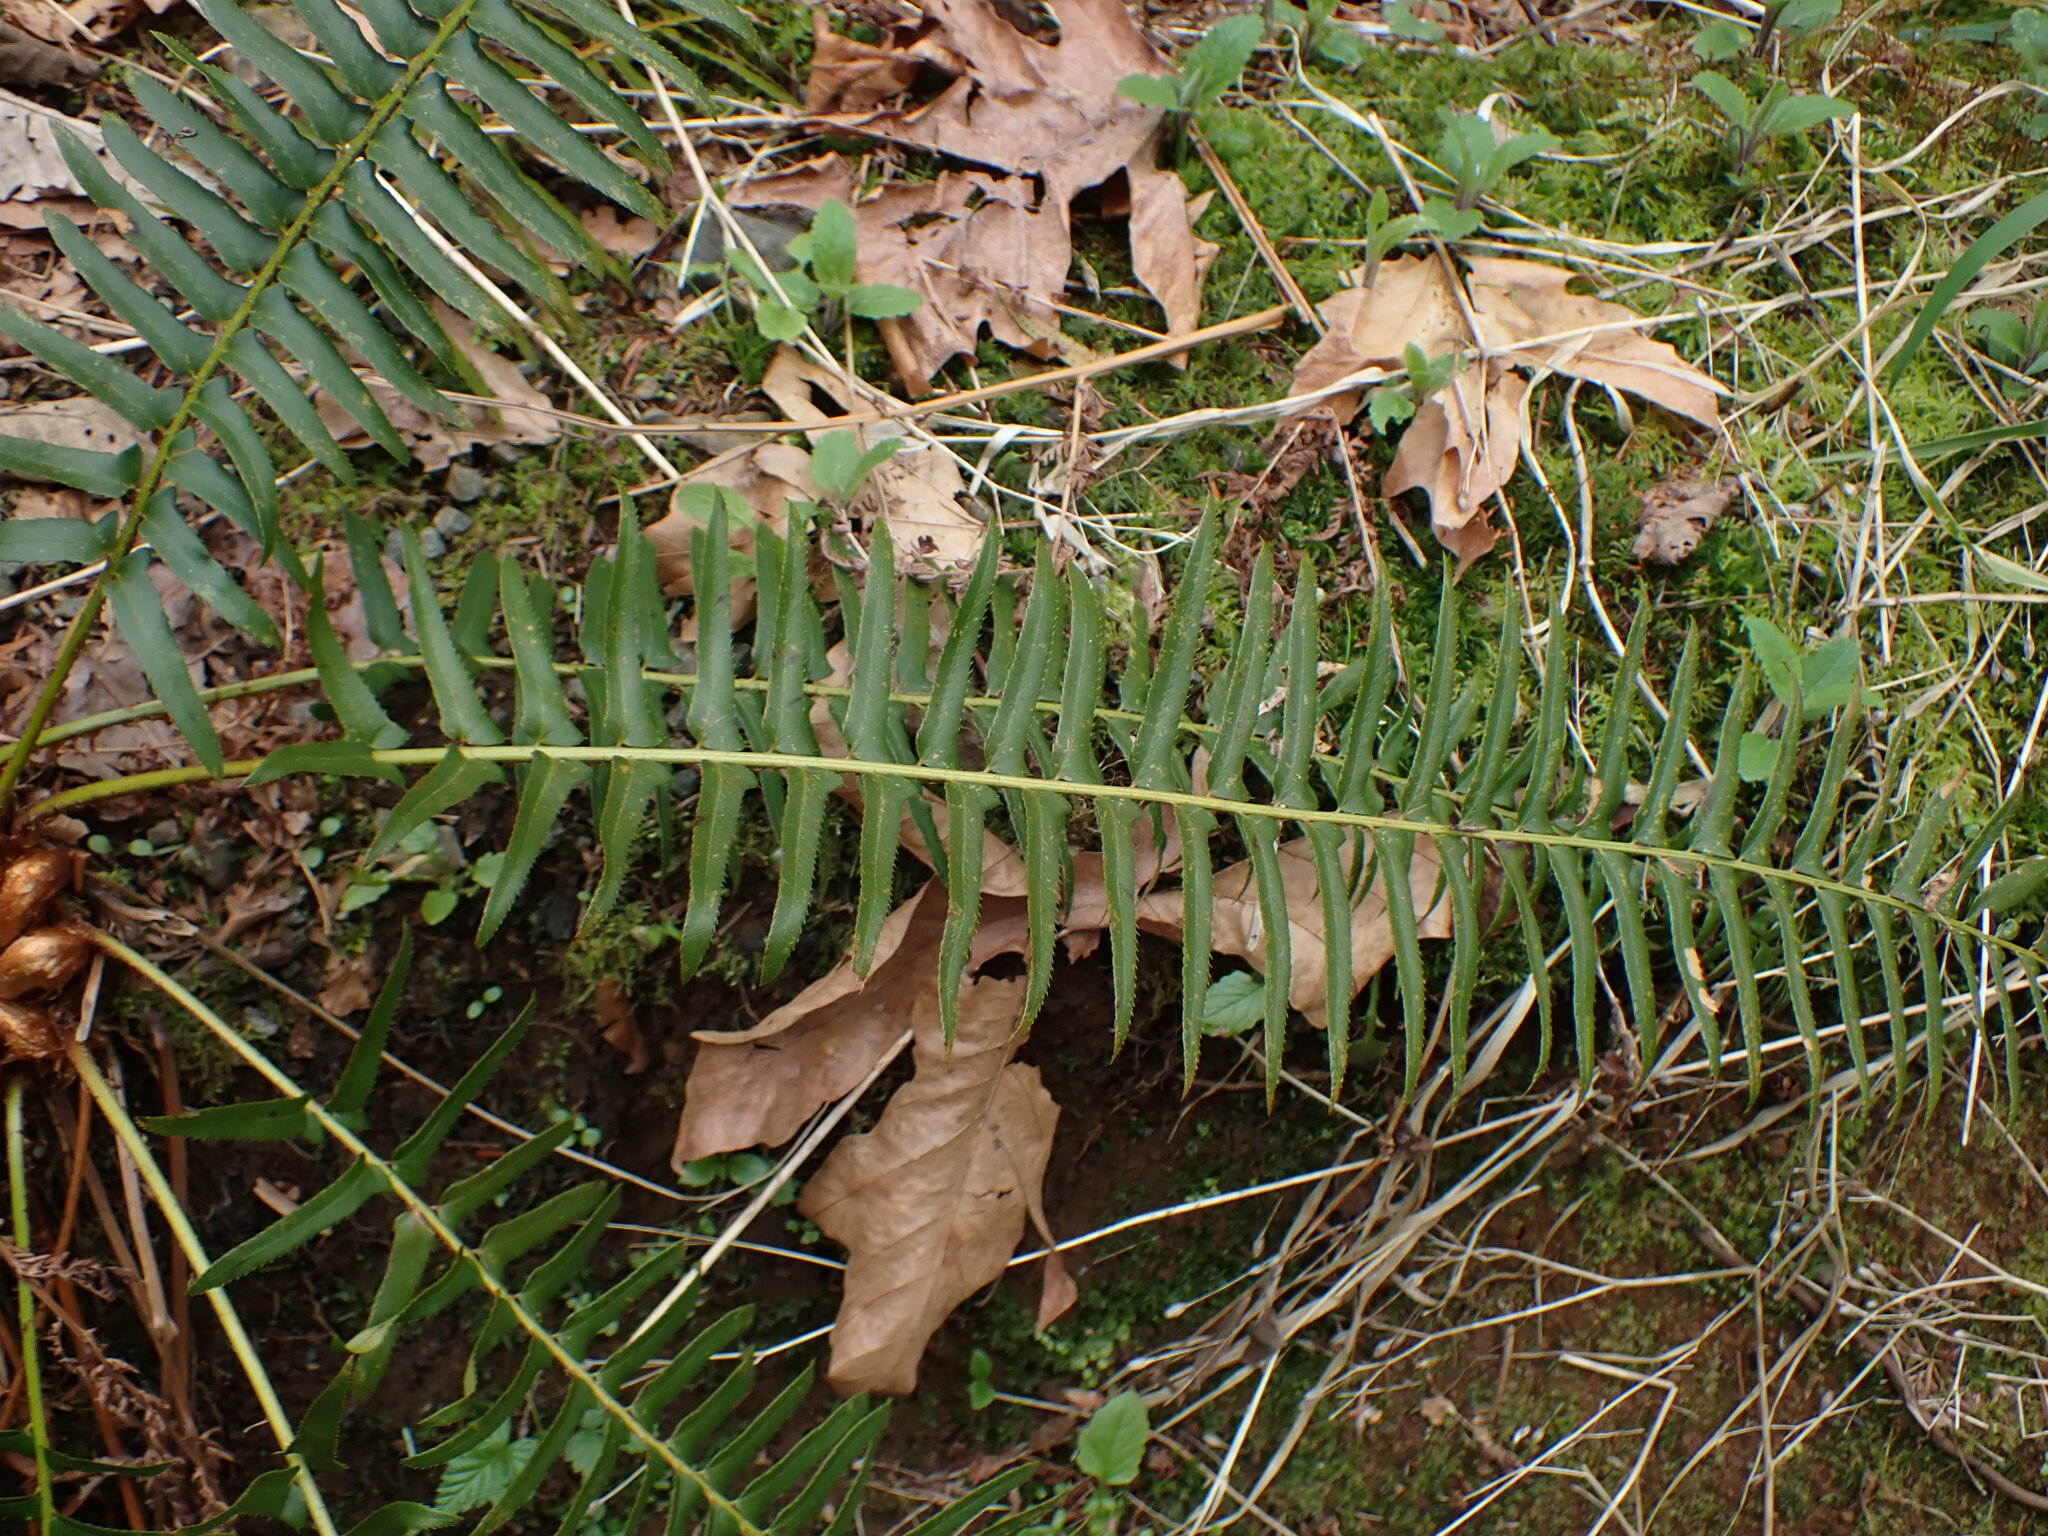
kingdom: Plantae
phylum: Tracheophyta
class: Polypodiopsida
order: Polypodiales
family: Dryopteridaceae
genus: Polystichum
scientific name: Polystichum munitum
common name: Western sword-fern
